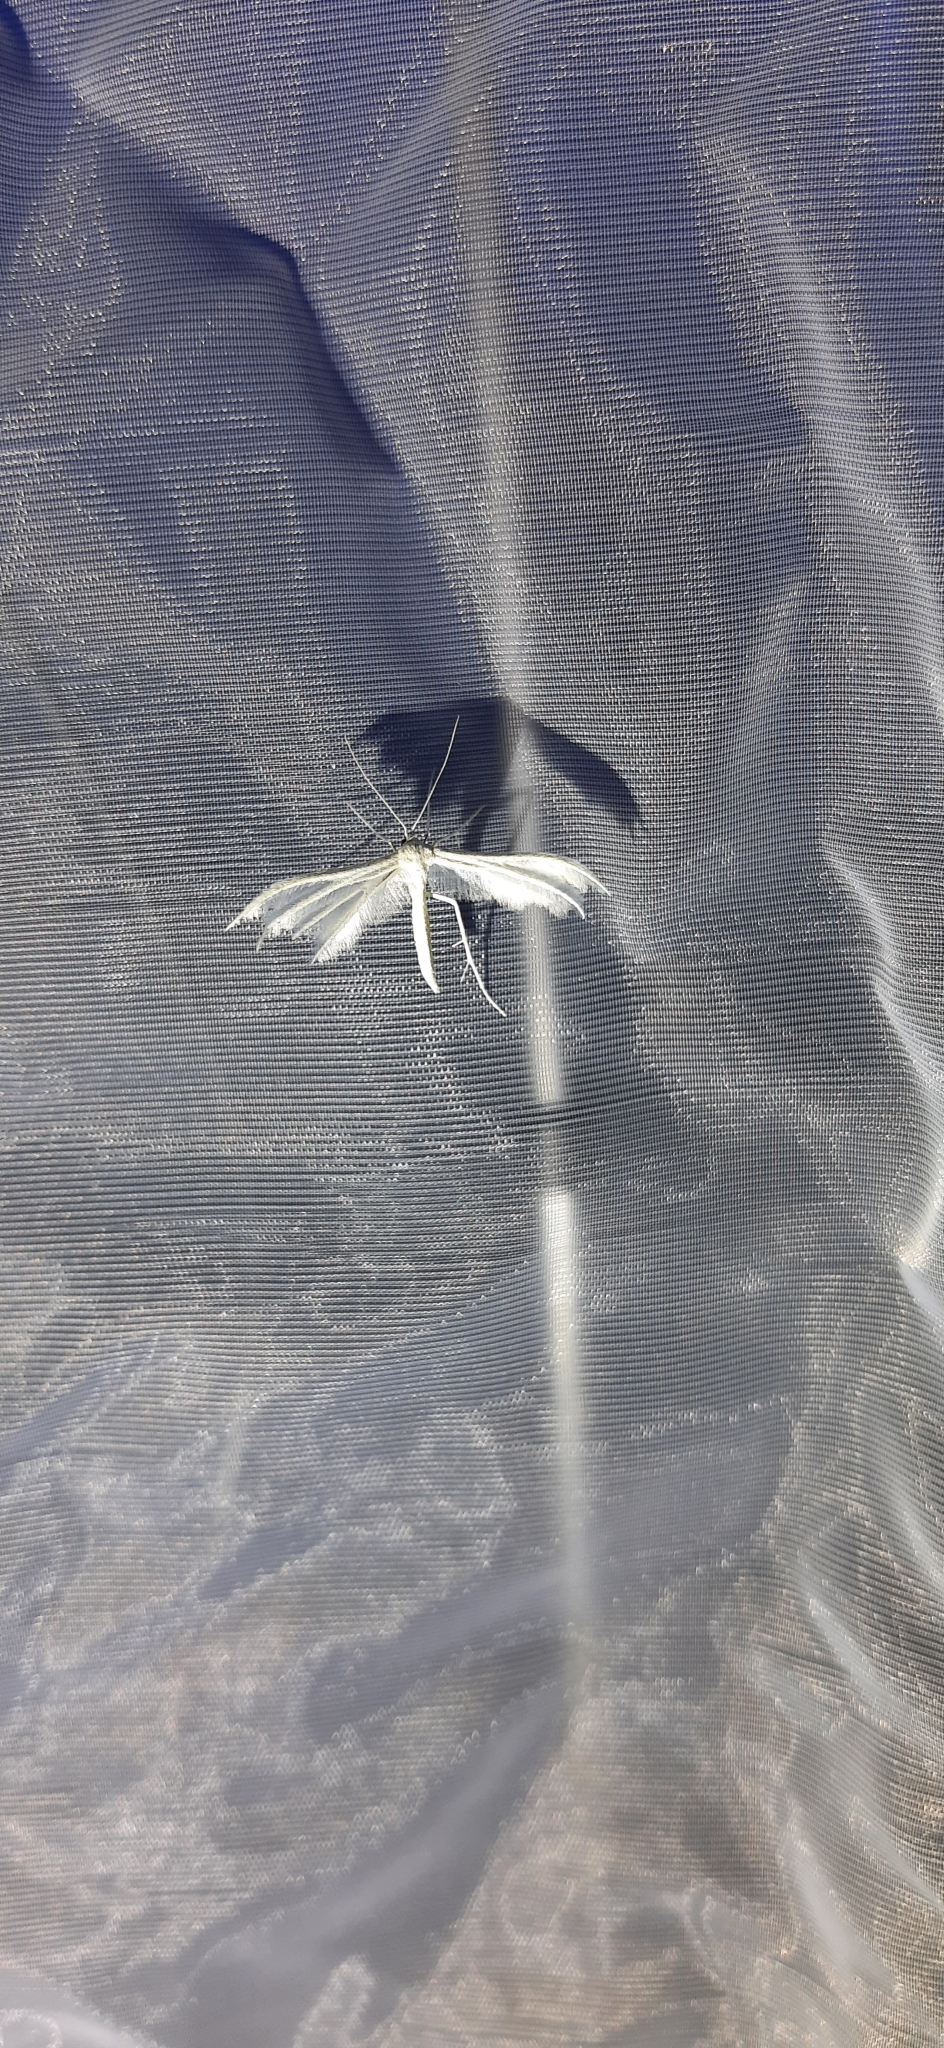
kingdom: Animalia
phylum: Arthropoda
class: Insecta
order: Lepidoptera
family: Pterophoridae
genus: Pterophorus
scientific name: Pterophorus pentadactyla
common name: White plume moth
